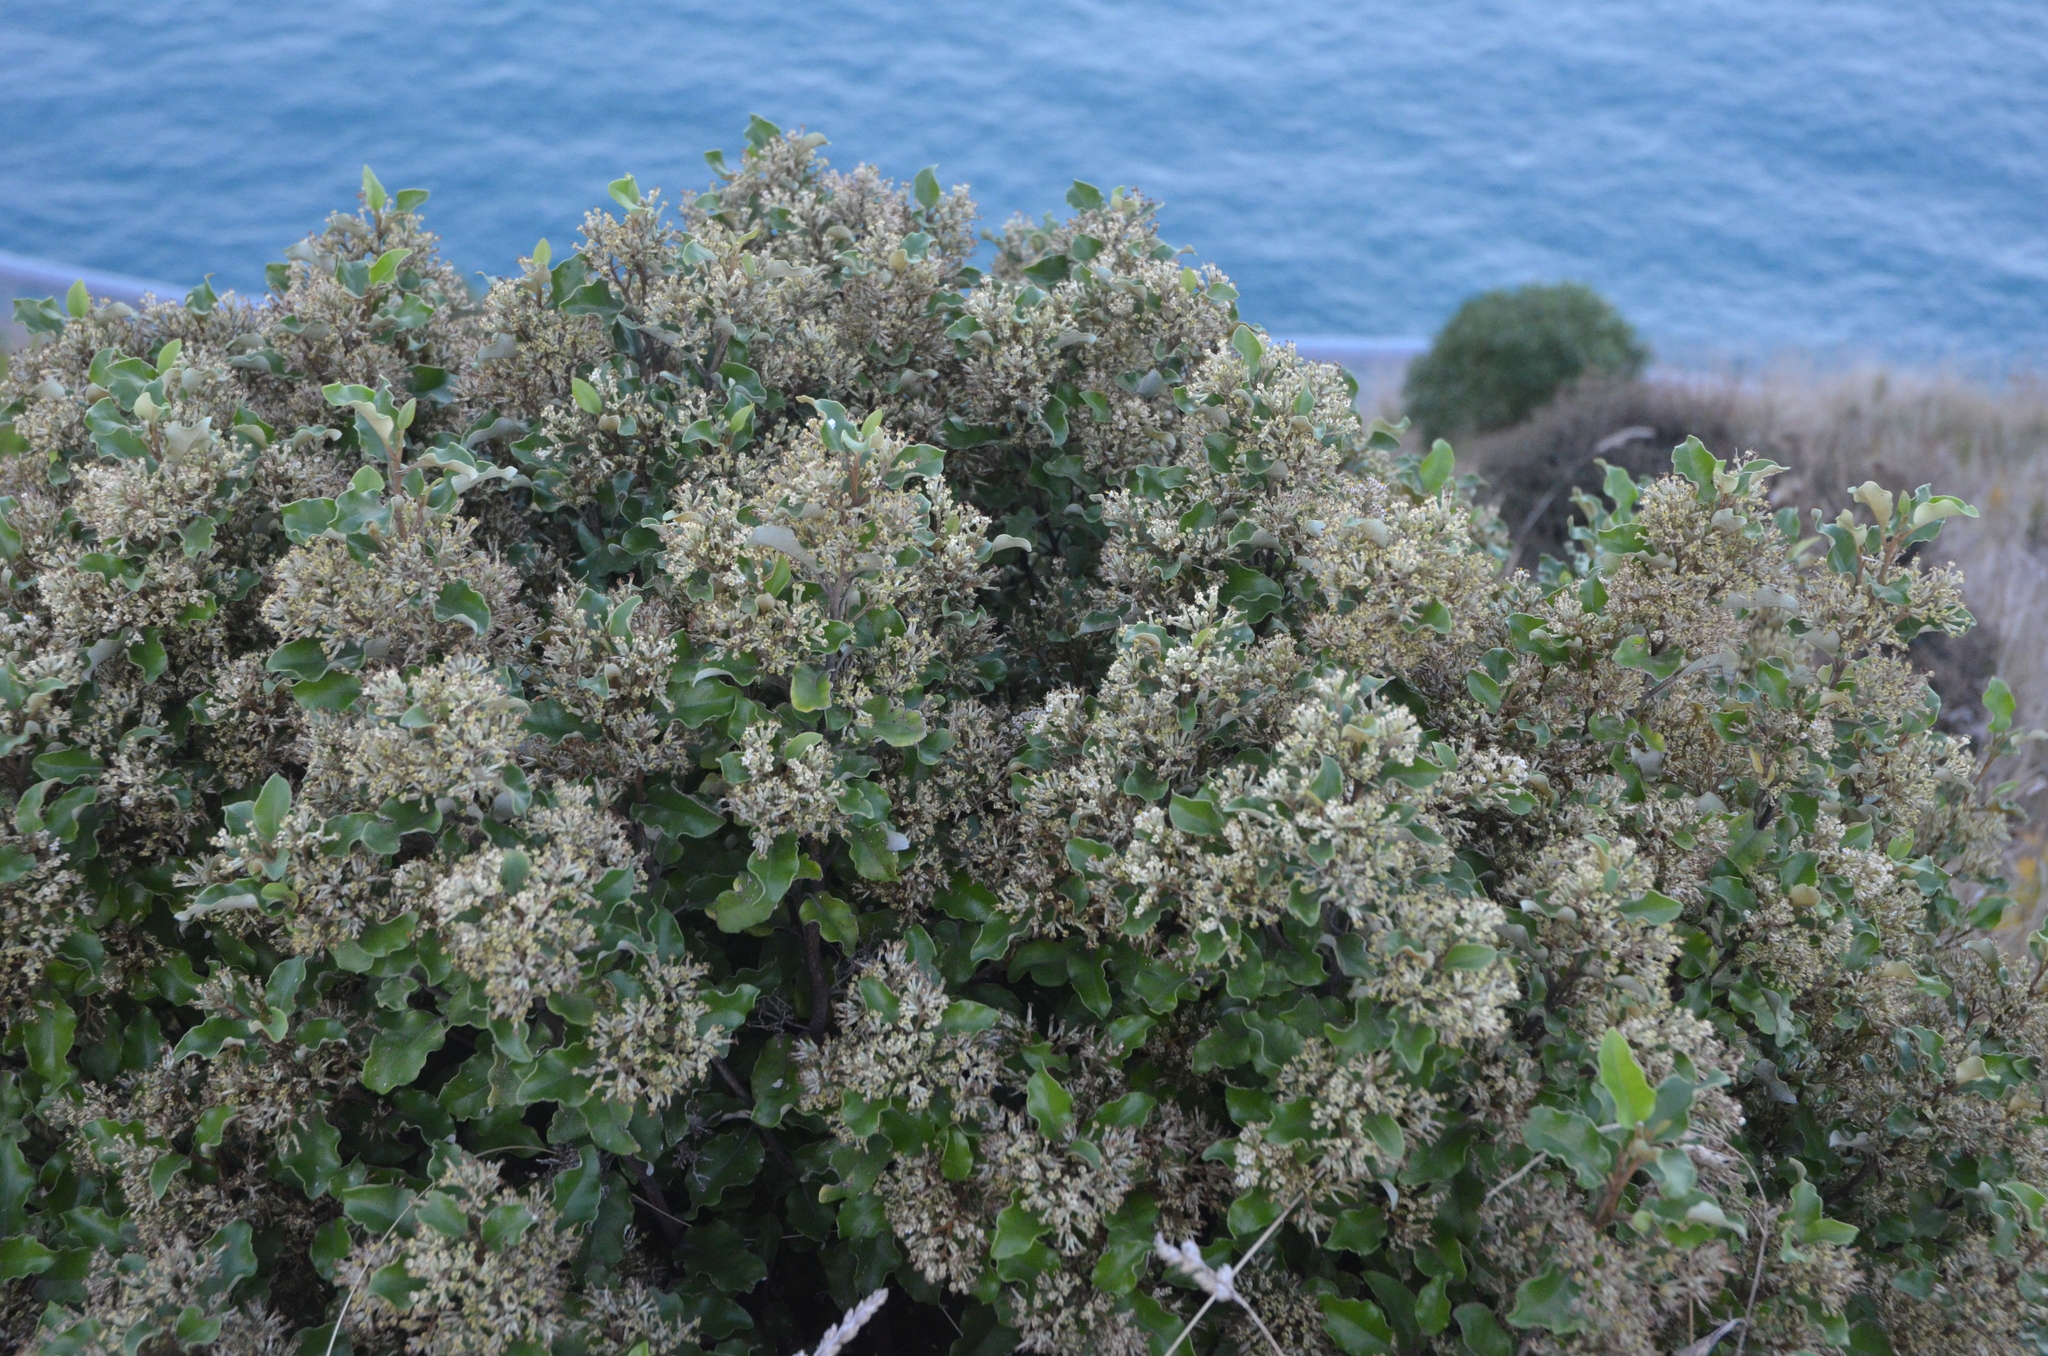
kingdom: Plantae
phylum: Tracheophyta
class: Magnoliopsida
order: Asterales
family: Asteraceae
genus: Olearia
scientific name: Olearia paniculata
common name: Akiraho
